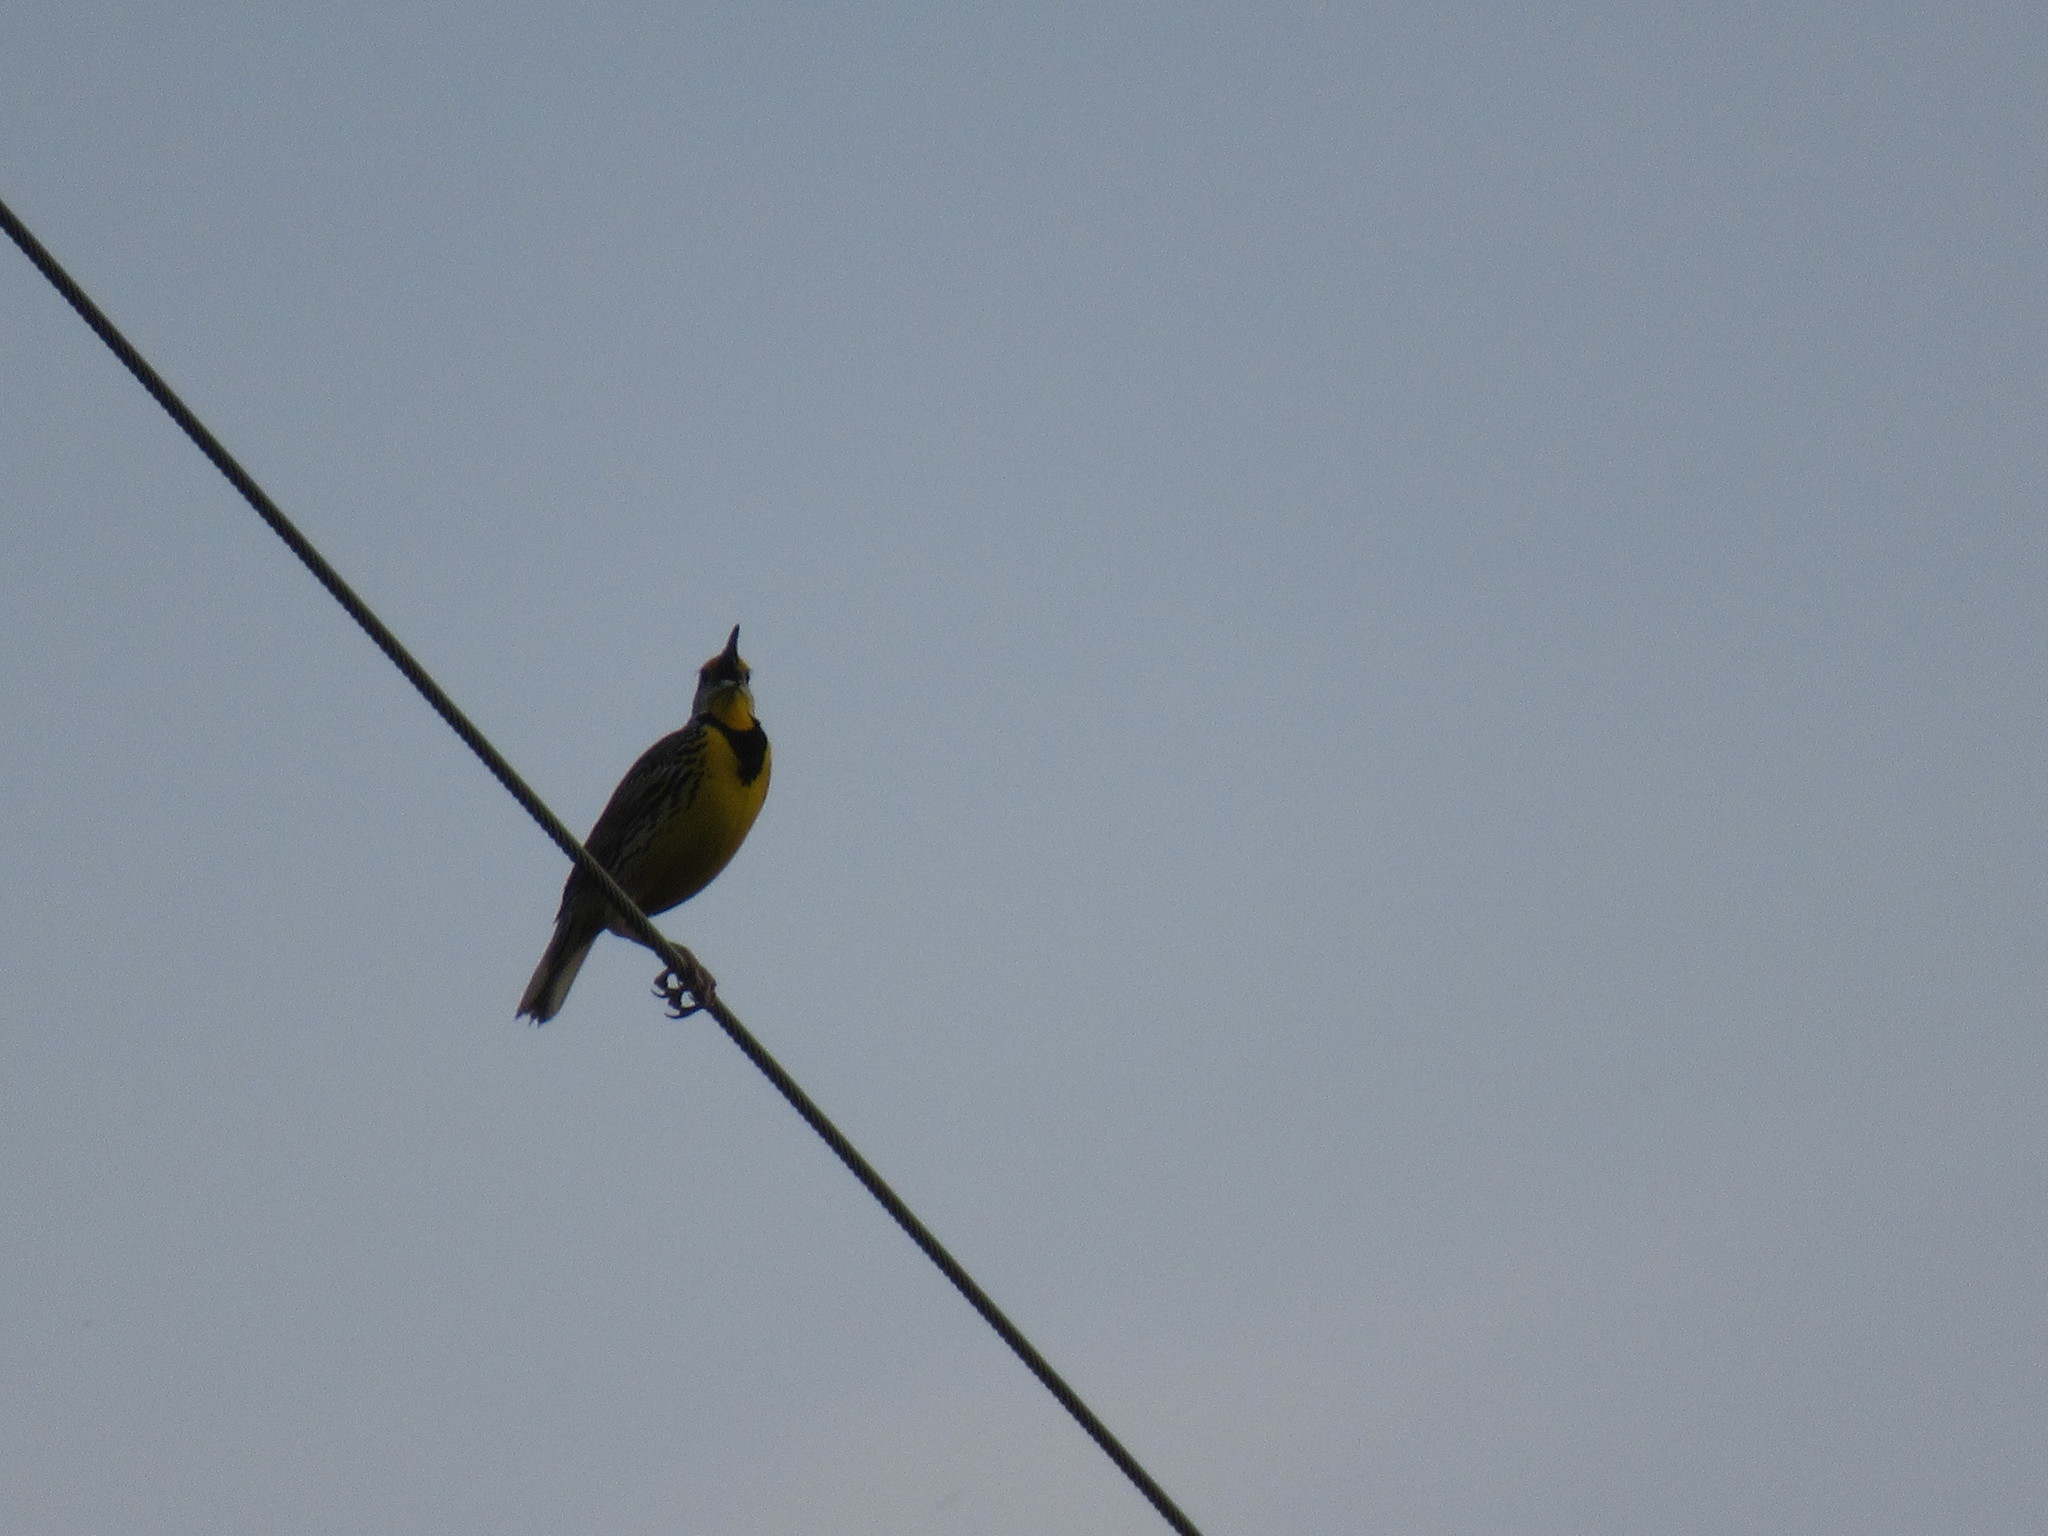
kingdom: Animalia
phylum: Chordata
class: Aves
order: Passeriformes
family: Icteridae
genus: Sturnella
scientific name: Sturnella magna
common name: Eastern meadowlark
